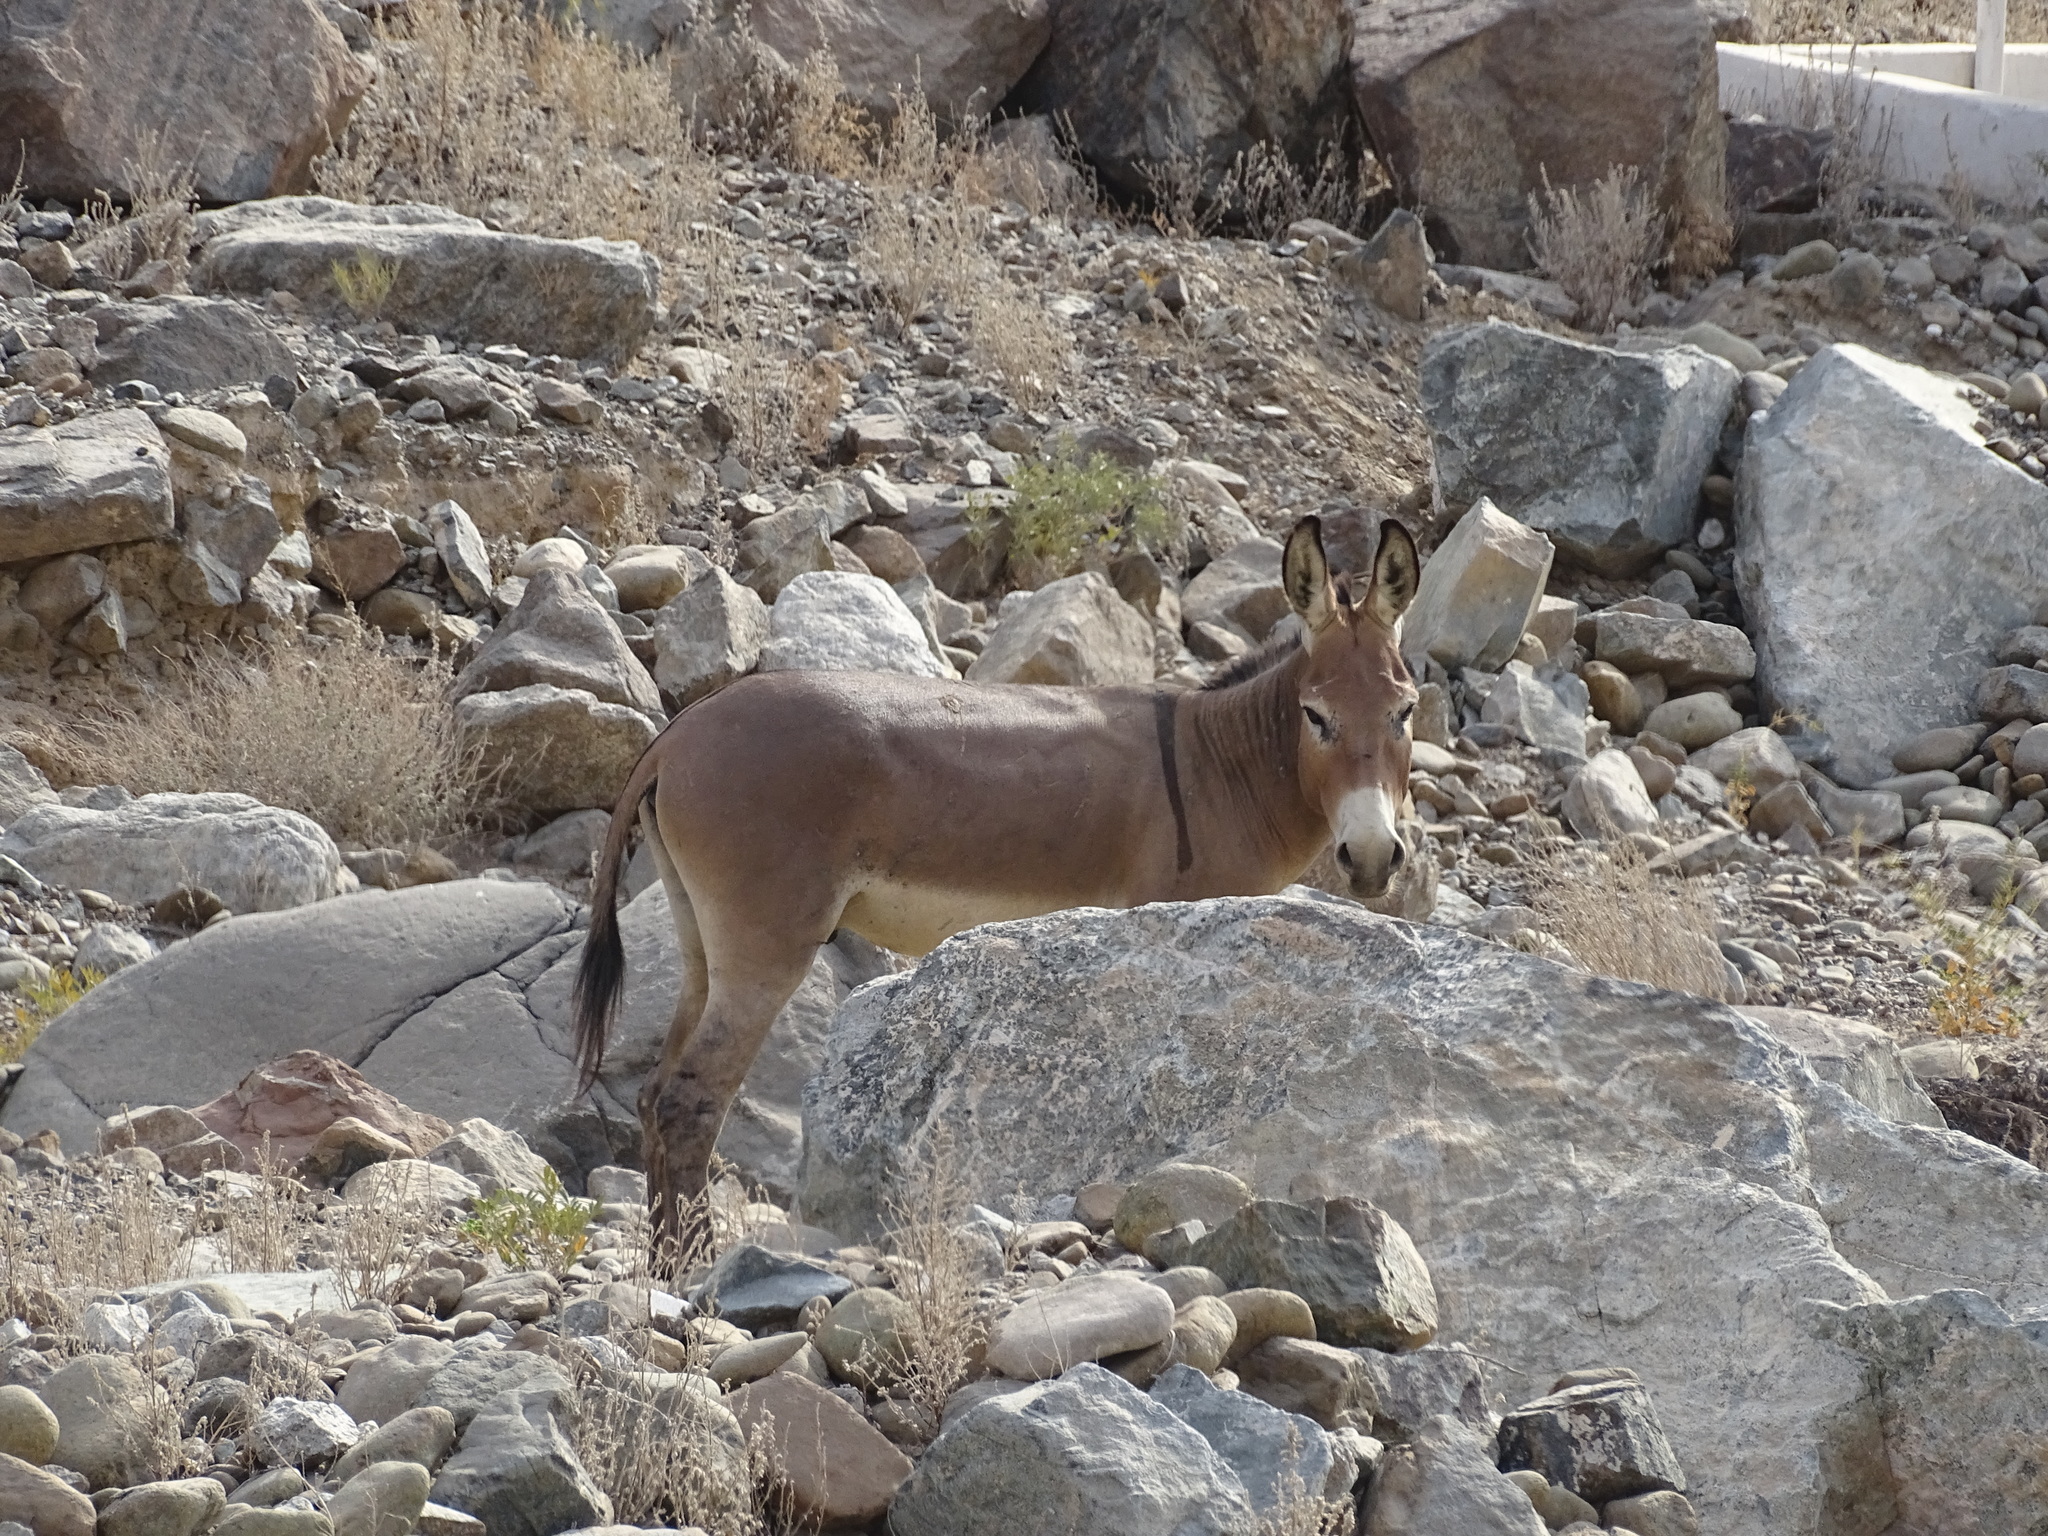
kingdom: Animalia
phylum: Chordata
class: Mammalia
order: Perissodactyla
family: Equidae
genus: Equus
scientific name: Equus asinus
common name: Ass
